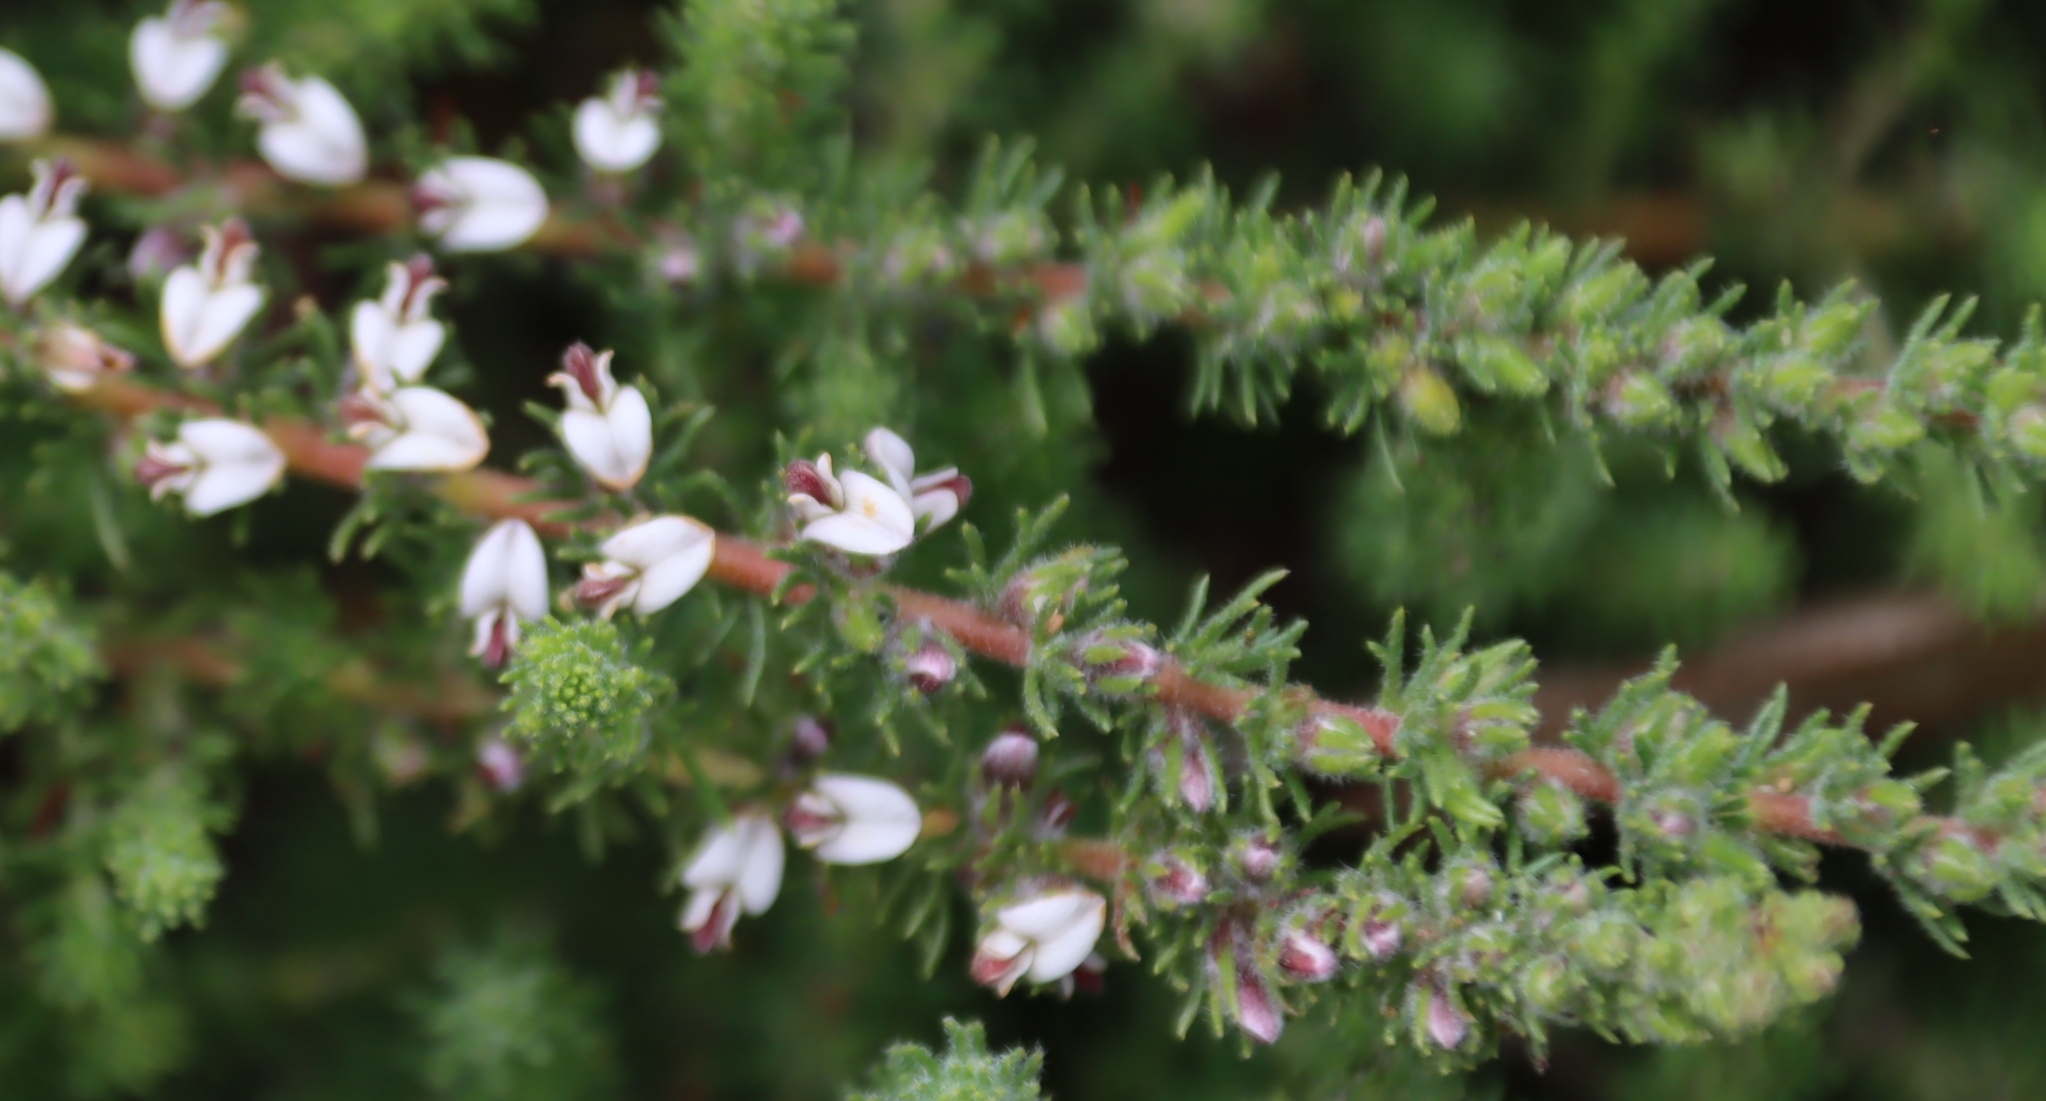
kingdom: Plantae
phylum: Tracheophyta
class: Magnoliopsida
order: Fabales
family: Fabaceae
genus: Aspalathus
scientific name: Aspalathus hispida
